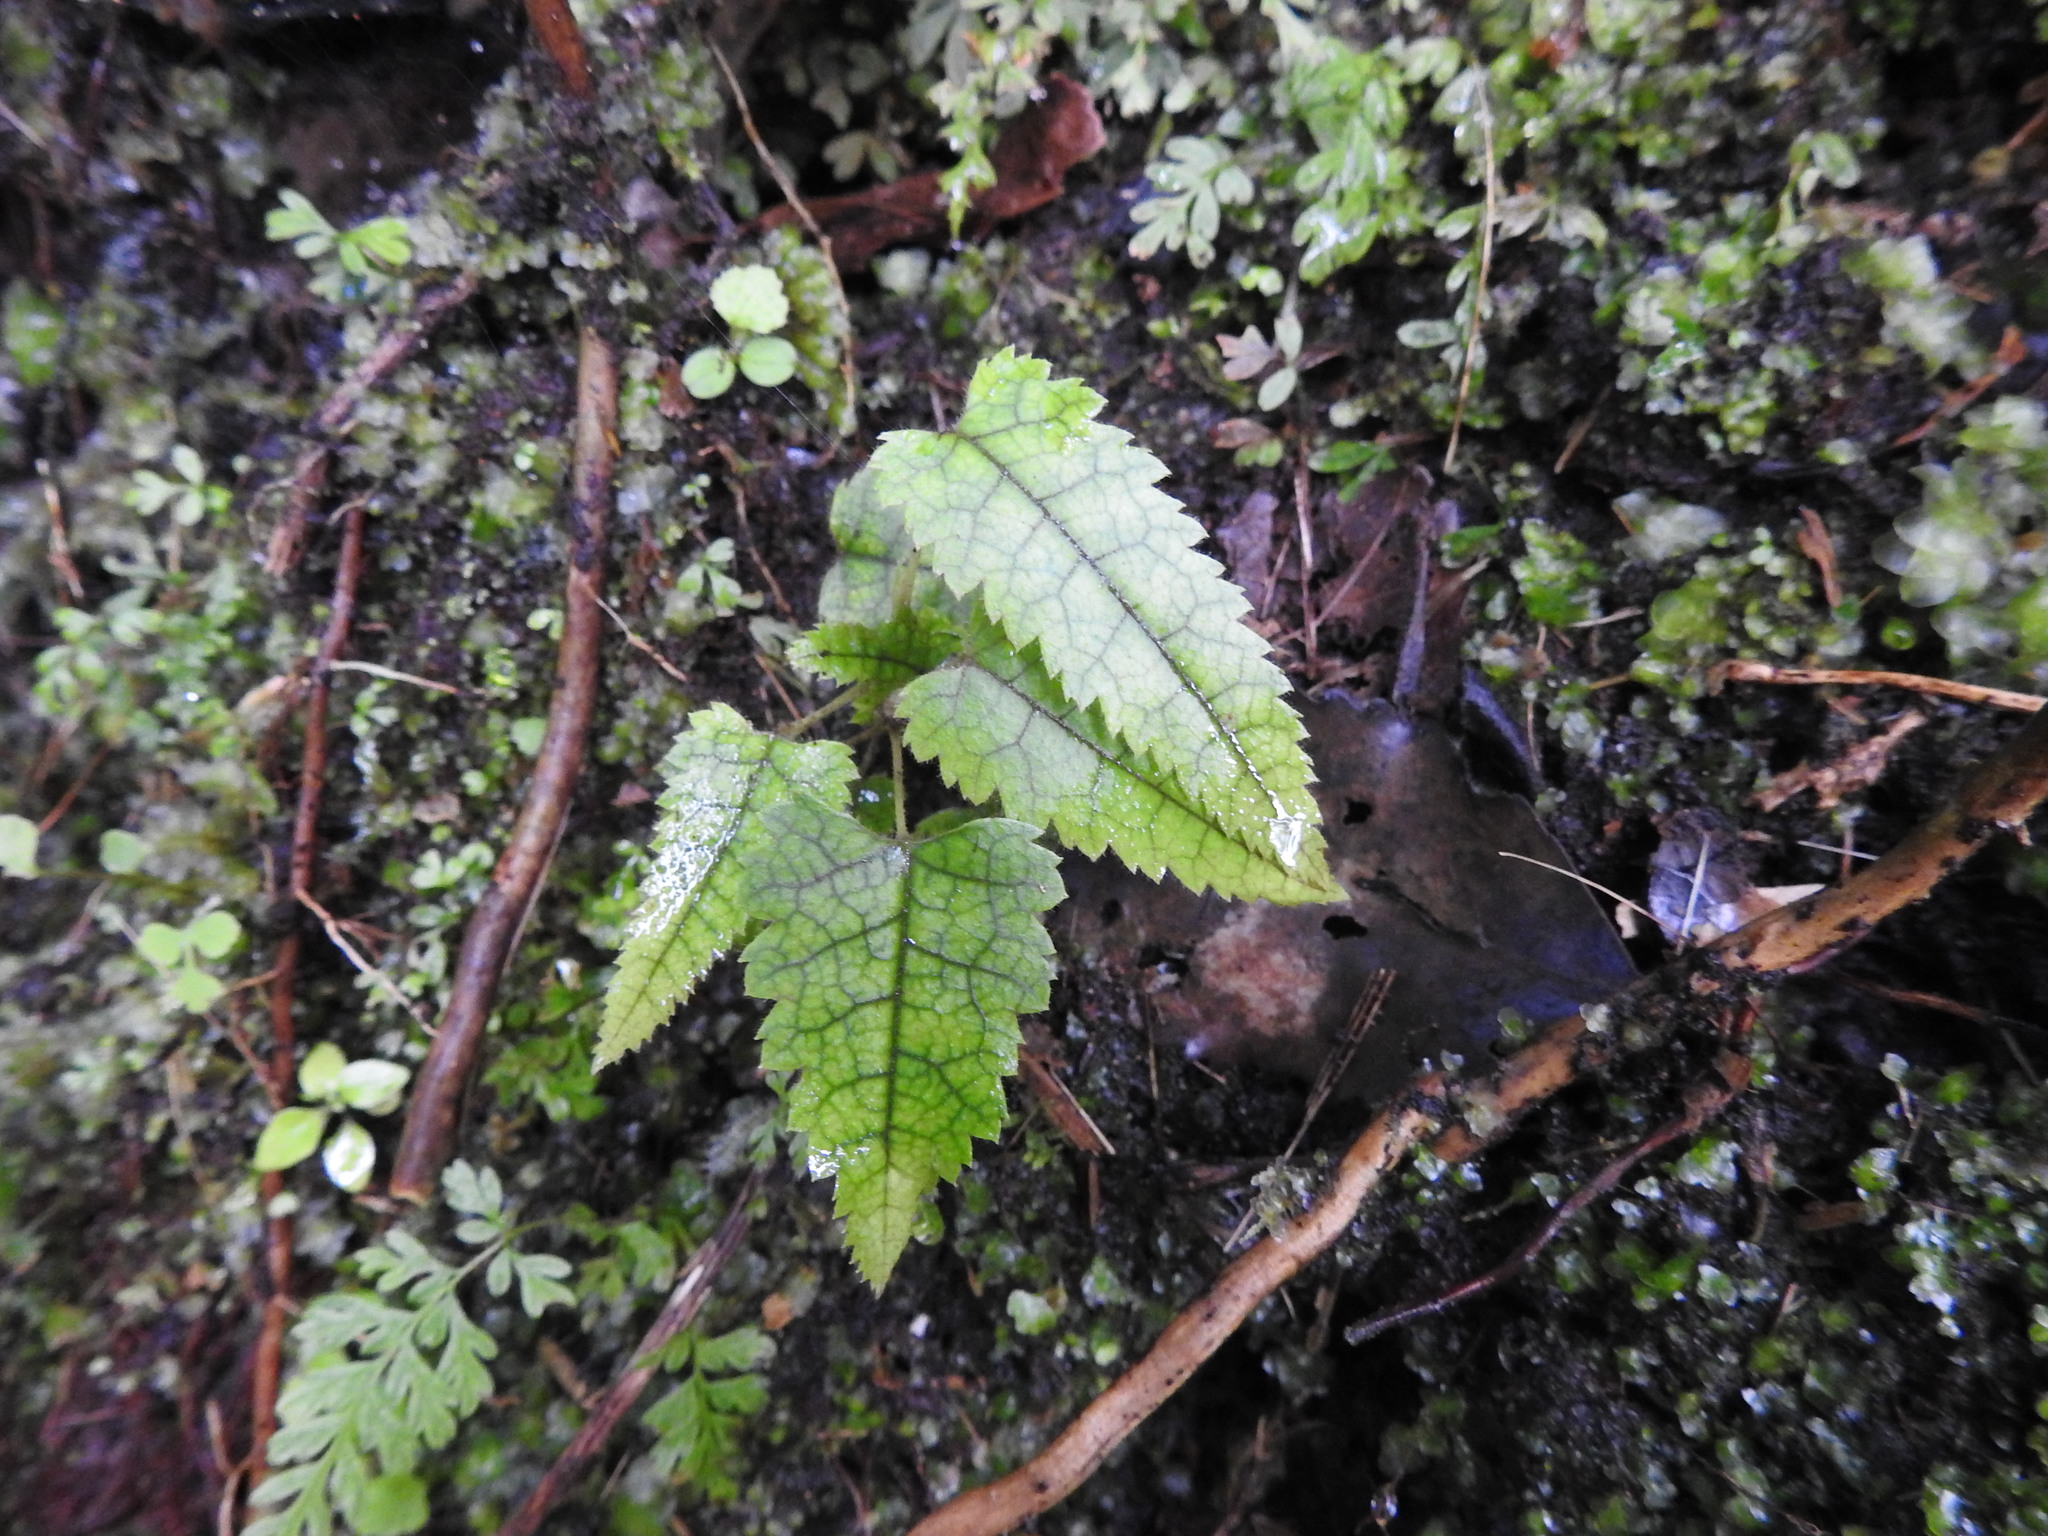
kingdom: Plantae
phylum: Tracheophyta
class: Magnoliopsida
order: Rosales
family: Rosaceae
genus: Rubus
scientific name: Rubus cissoides
